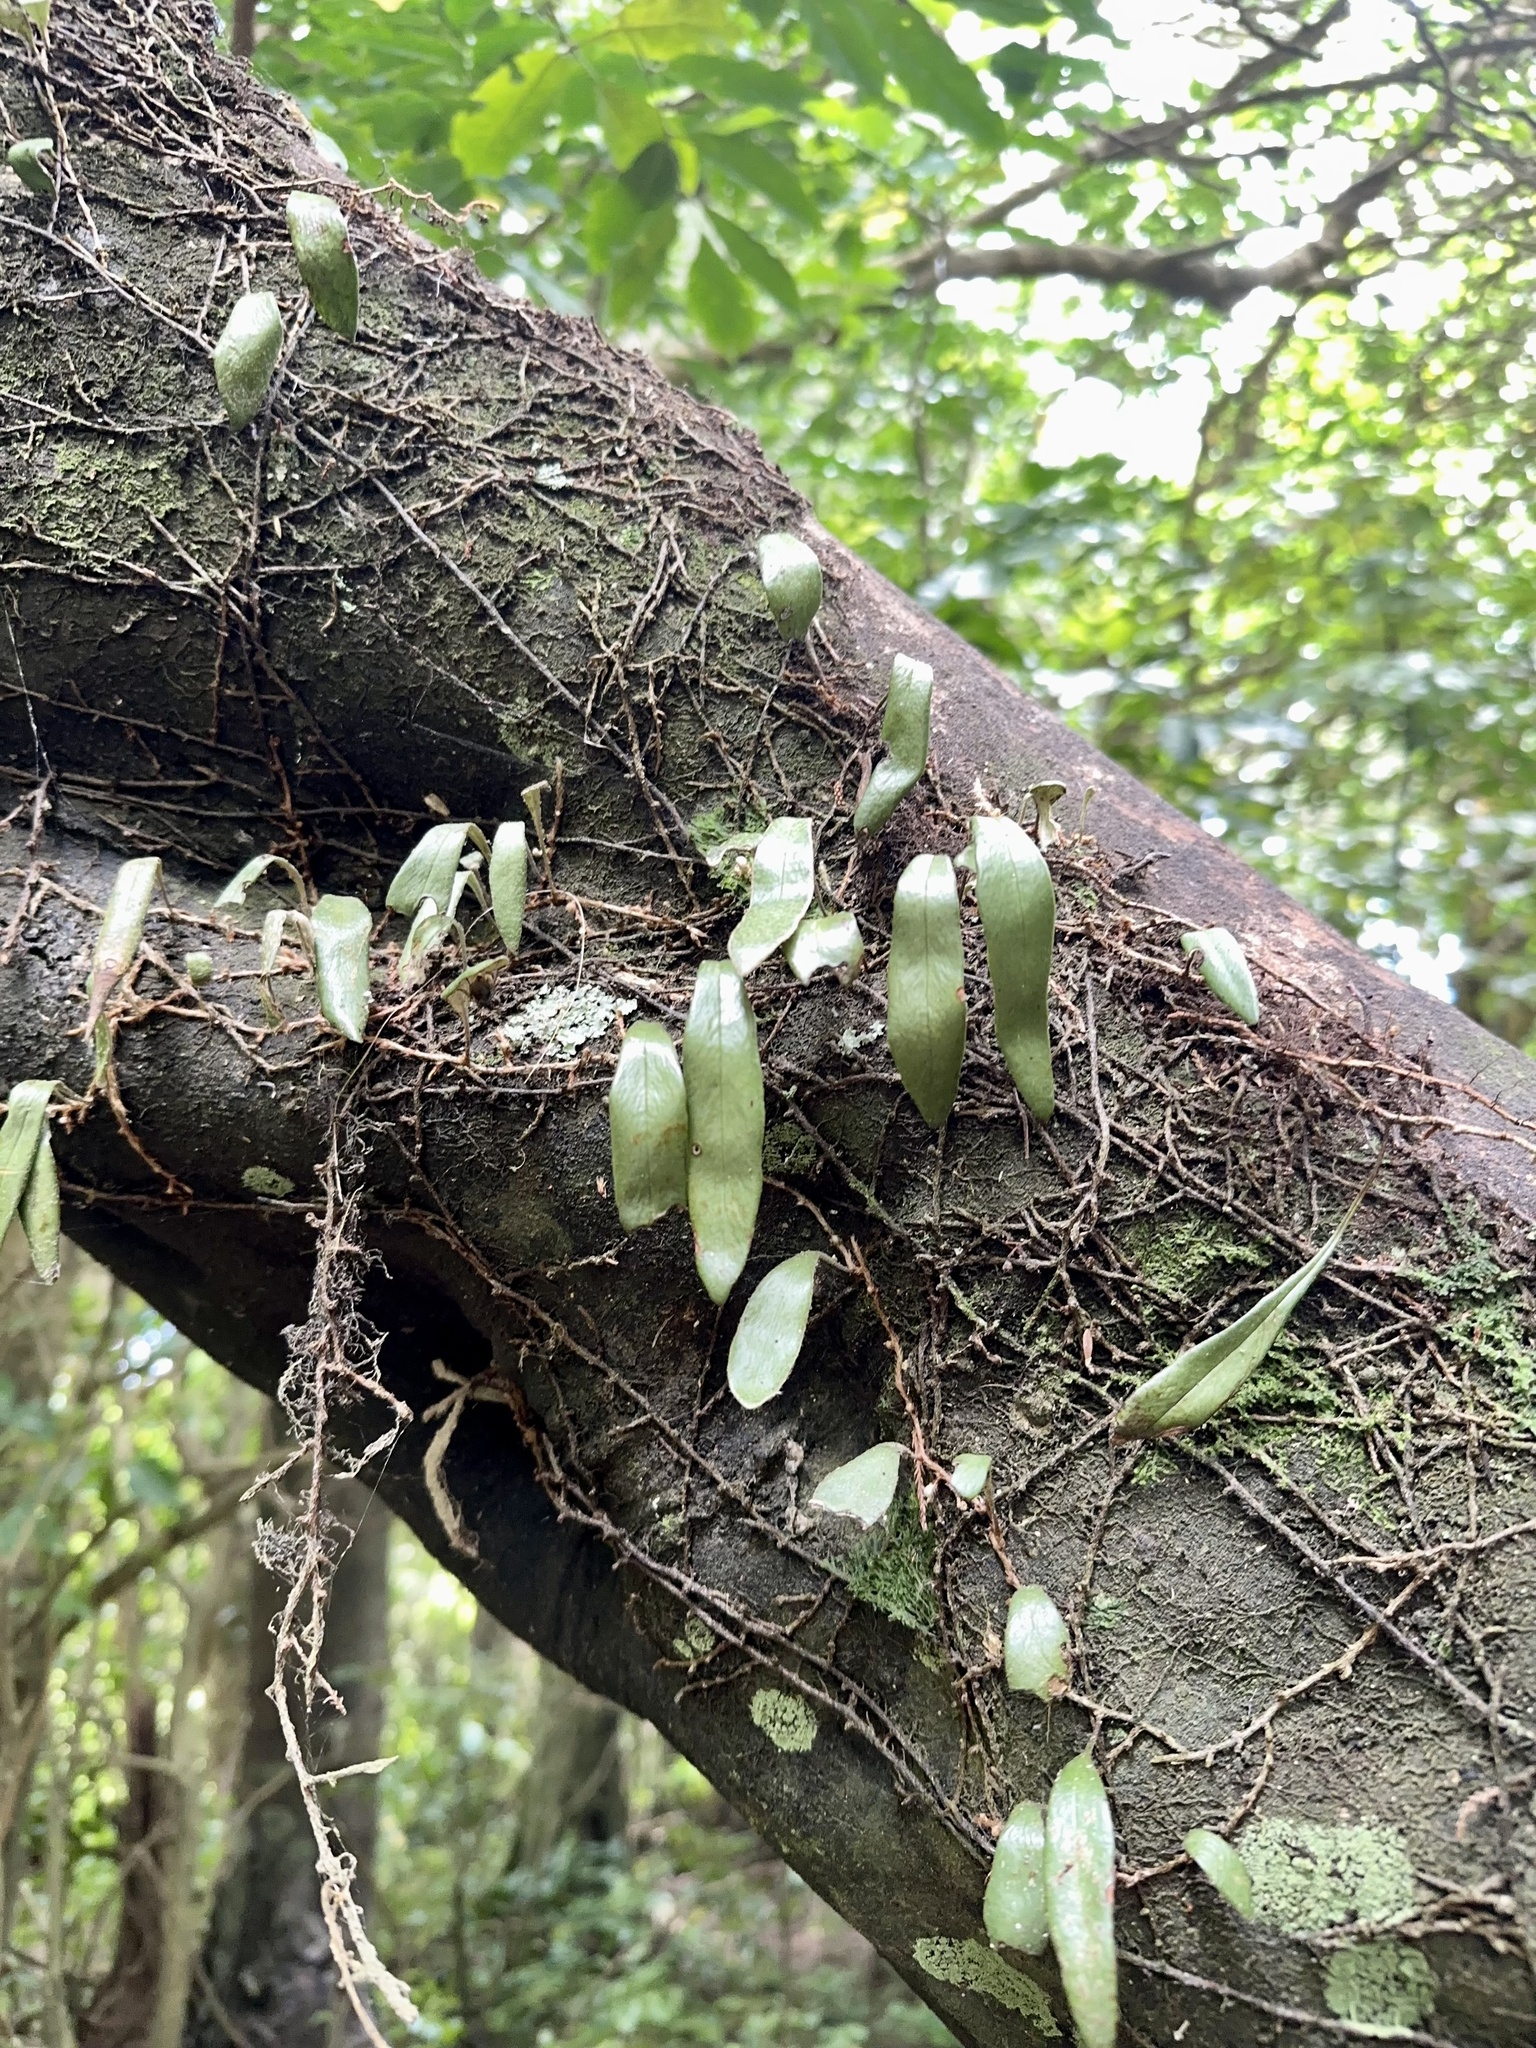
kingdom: Plantae
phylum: Tracheophyta
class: Polypodiopsida
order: Polypodiales
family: Polypodiaceae
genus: Pyrrosia
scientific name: Pyrrosia eleagnifolia
